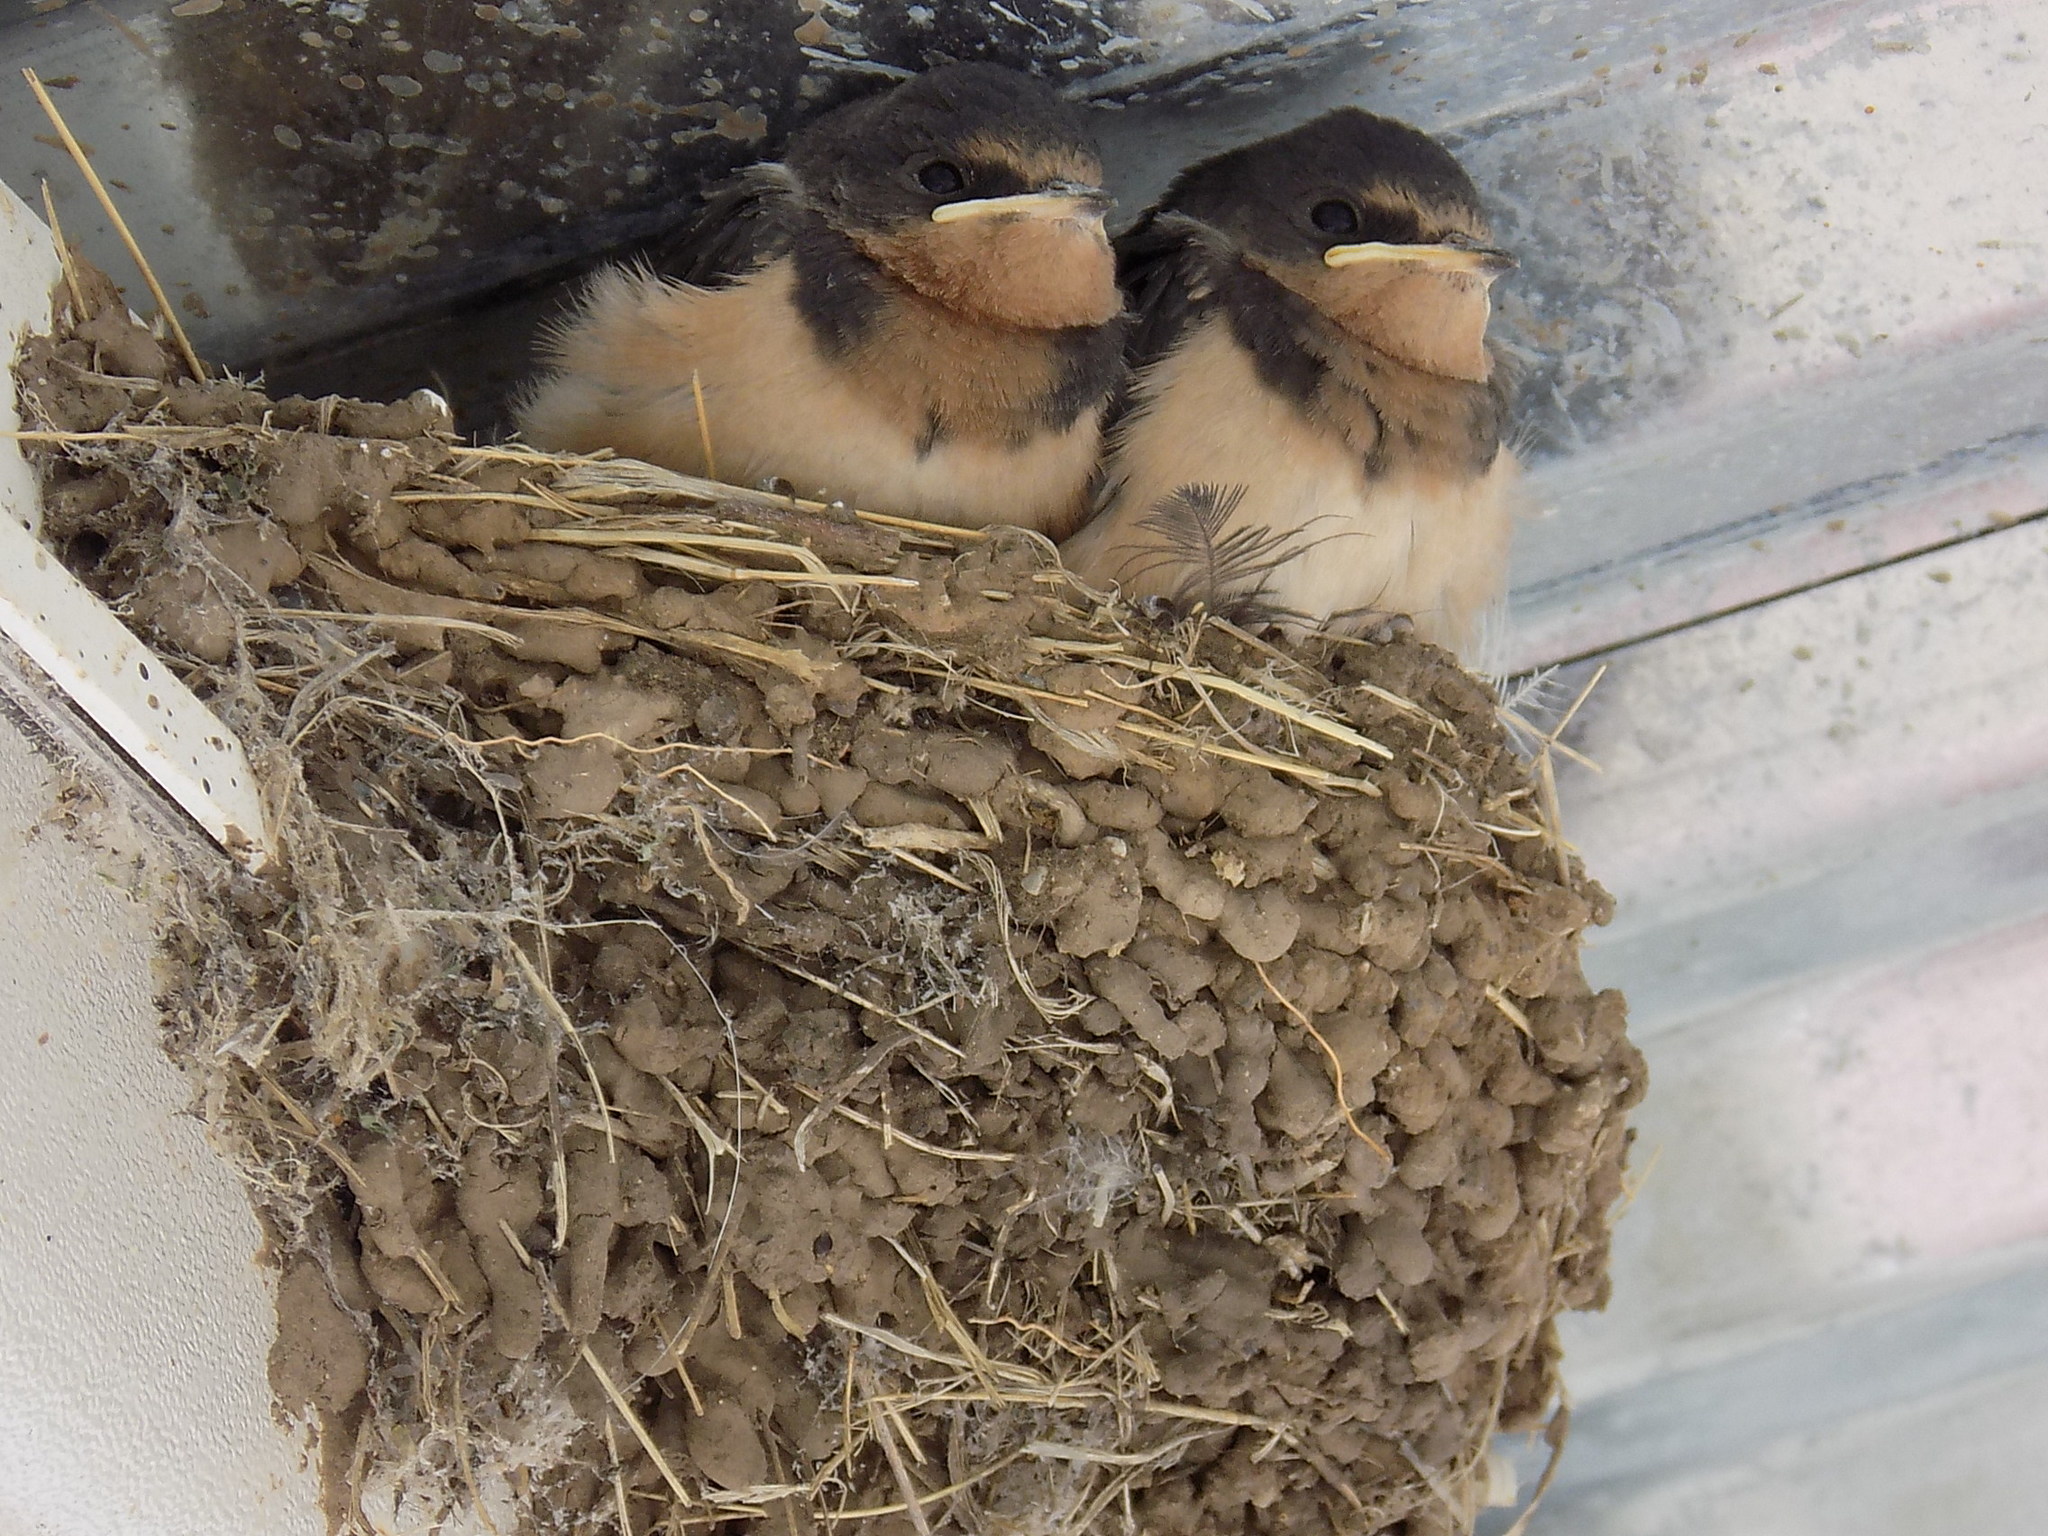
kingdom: Animalia
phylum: Chordata
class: Aves
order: Passeriformes
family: Hirundinidae
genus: Hirundo
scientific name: Hirundo rustica
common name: Barn swallow
